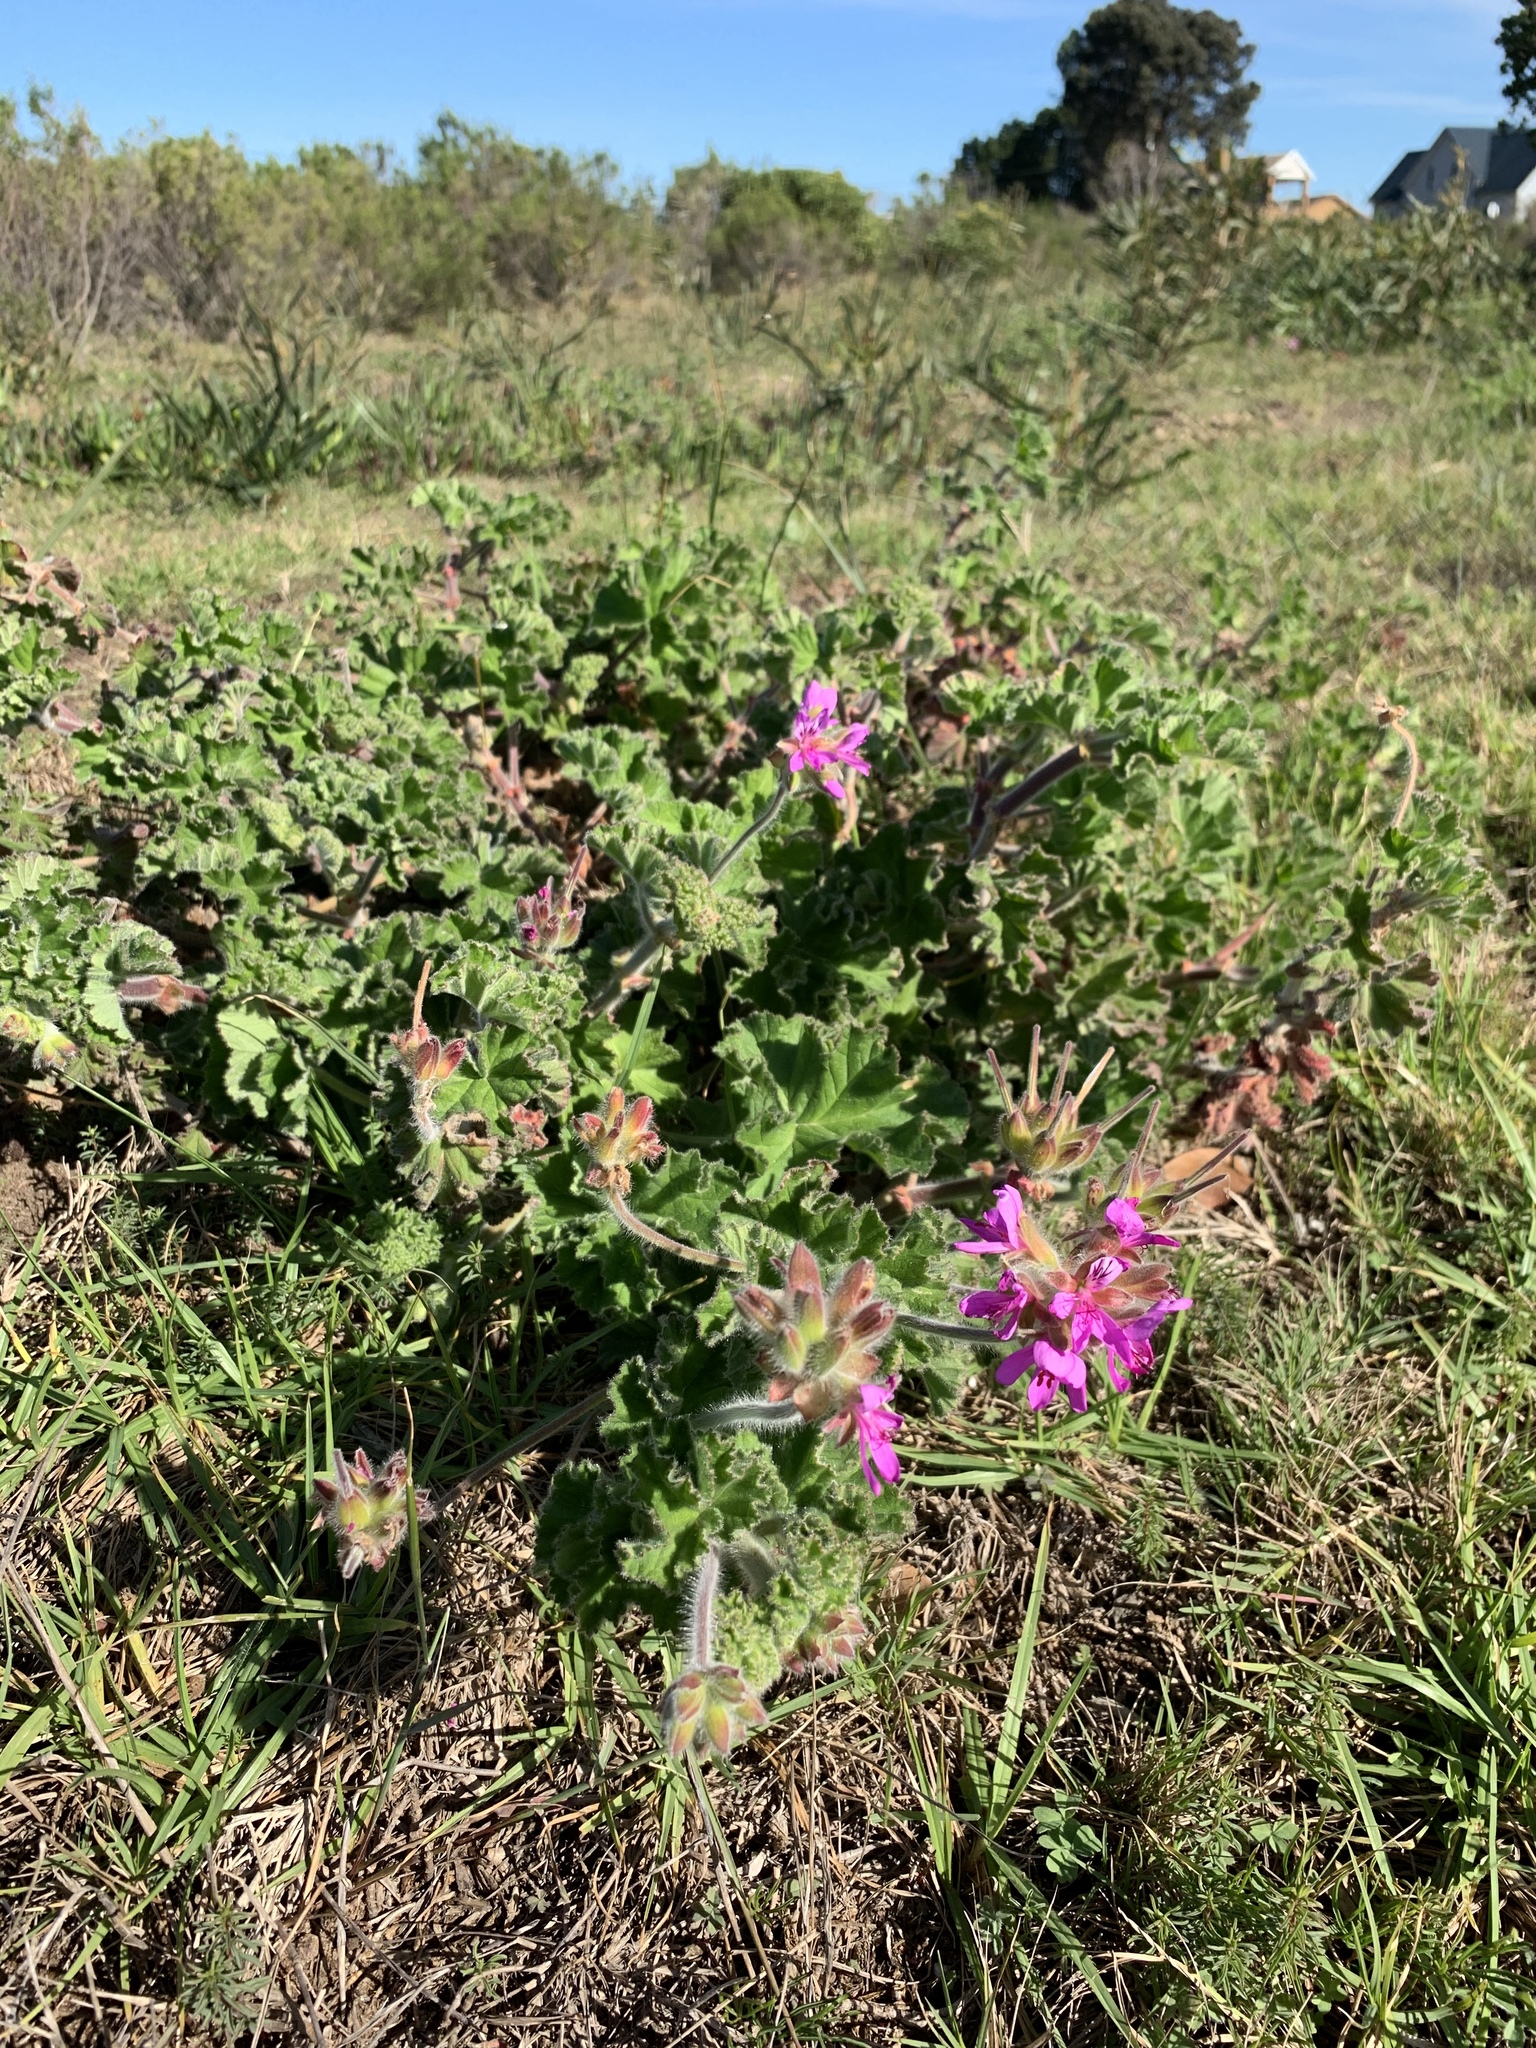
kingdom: Plantae
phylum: Tracheophyta
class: Magnoliopsida
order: Geraniales
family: Geraniaceae
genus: Pelargonium
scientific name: Pelargonium capitatum
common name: Rose scented geranium
